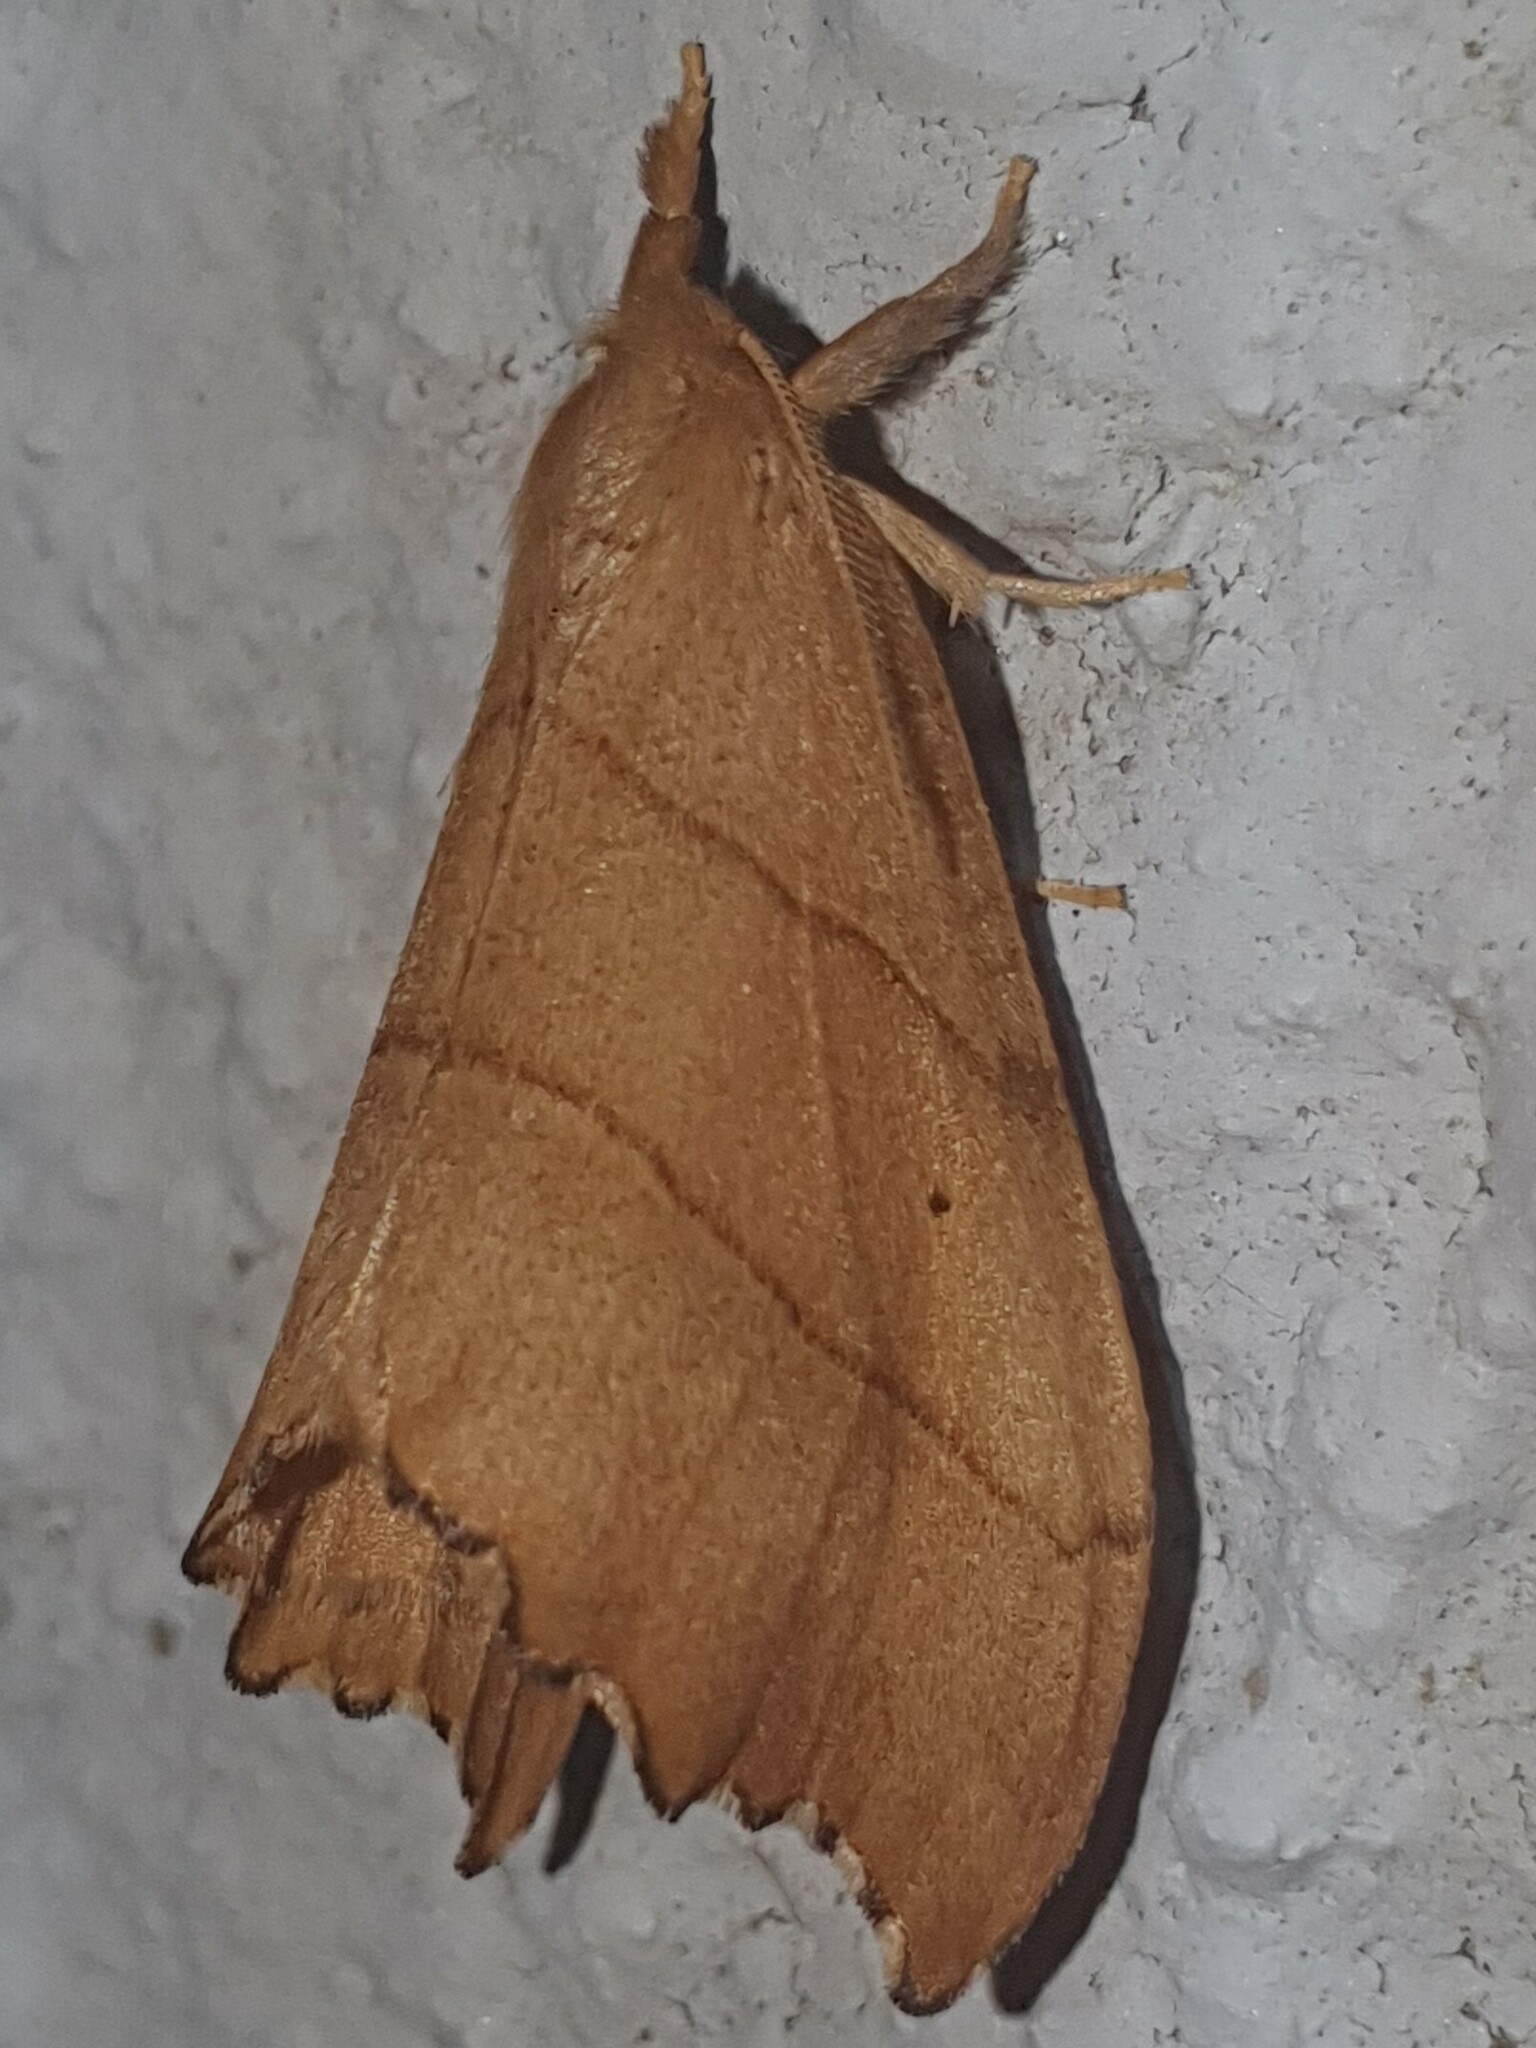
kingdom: Animalia
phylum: Arthropoda
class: Insecta
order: Lepidoptera
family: Drepanidae
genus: Falcaria
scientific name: Falcaria lacertinaria
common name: Scalloped hook-tip
